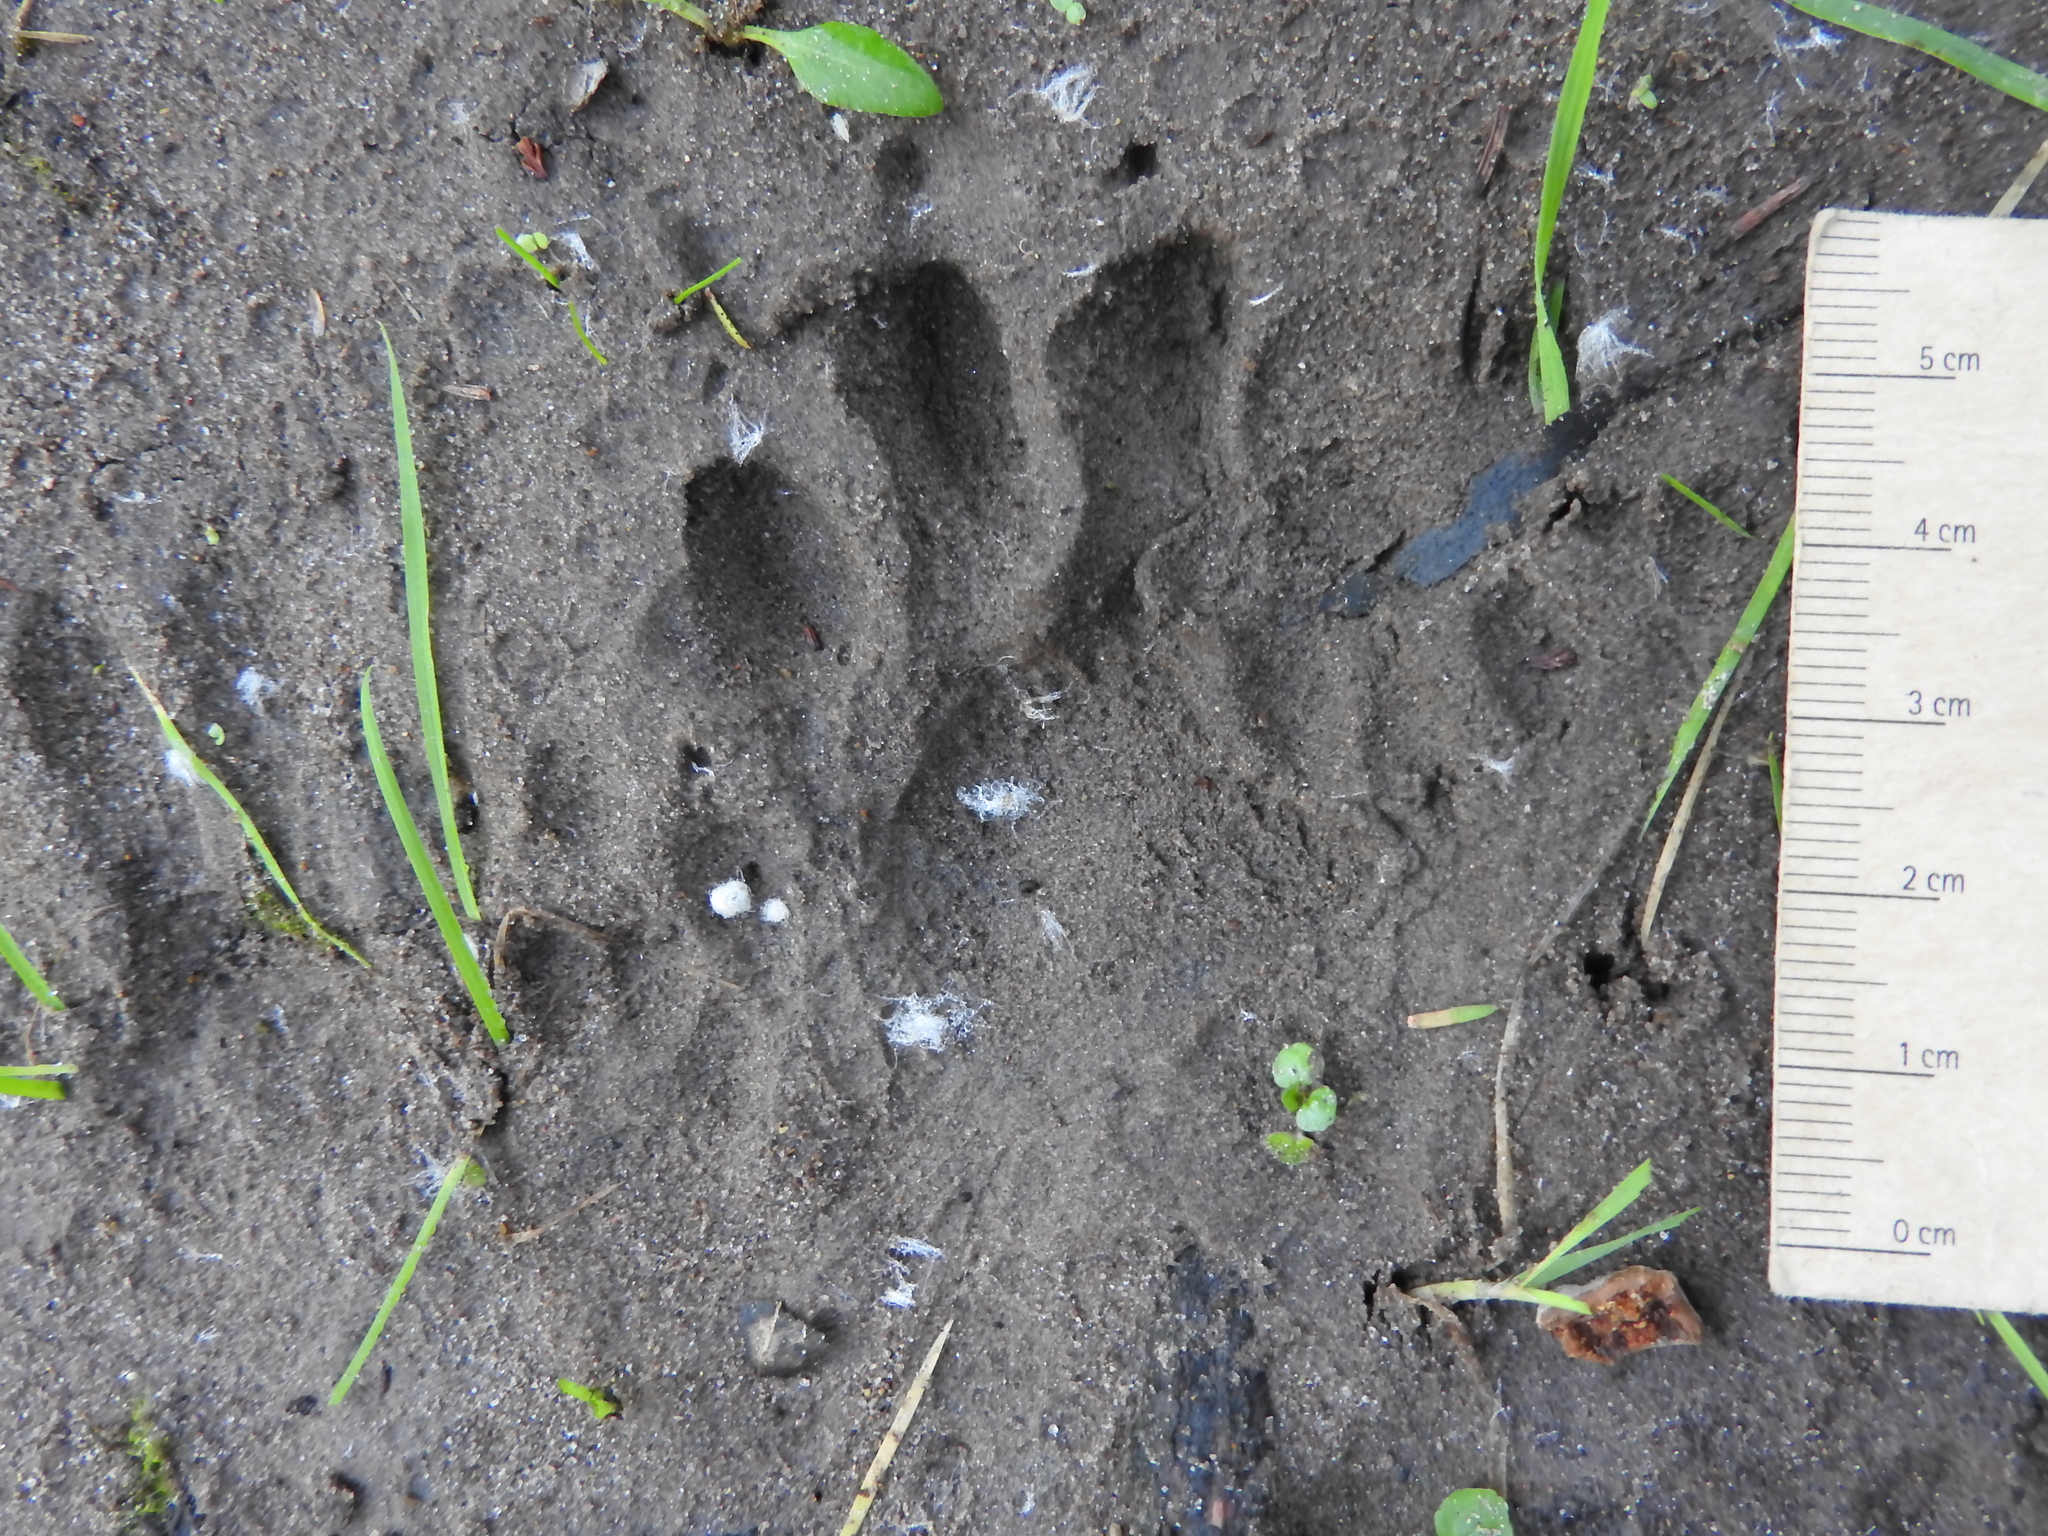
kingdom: Animalia
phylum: Chordata
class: Mammalia
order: Carnivora
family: Procyonidae
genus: Procyon
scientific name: Procyon lotor
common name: Raccoon
